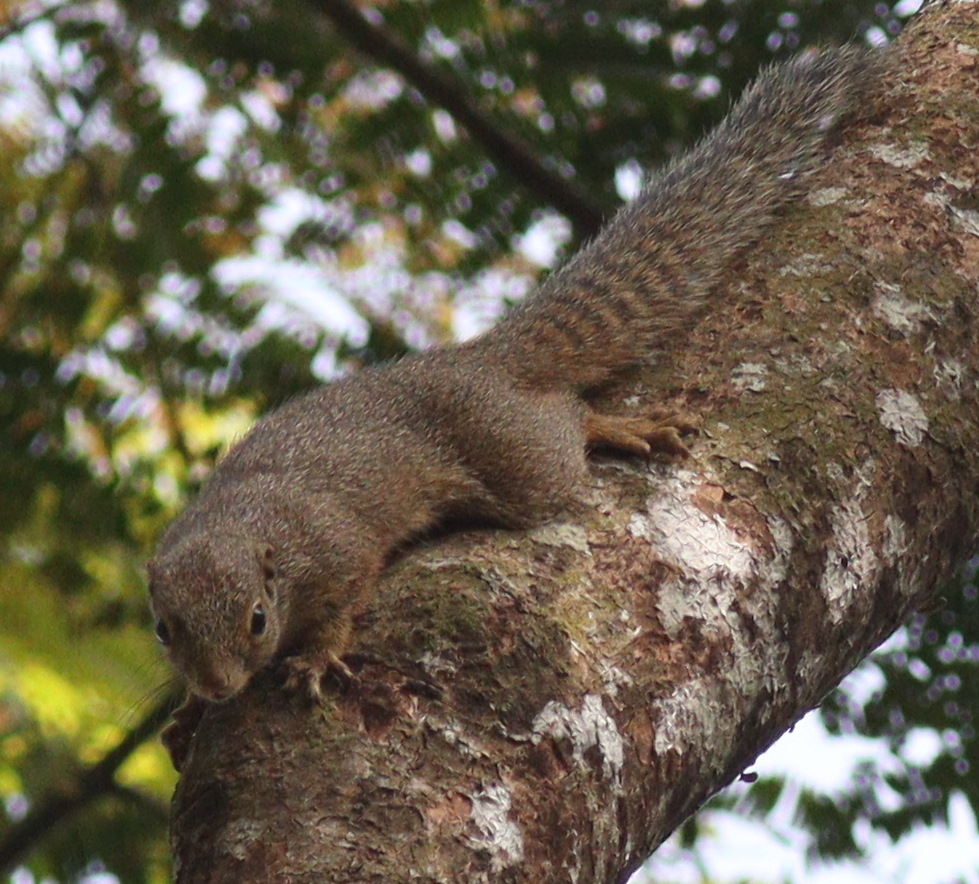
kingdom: Animalia
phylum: Chordata
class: Mammalia
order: Rodentia
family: Sciuridae
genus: Heliosciurus
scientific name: Heliosciurus rufobrachium
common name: Red-legged sun squirrel
